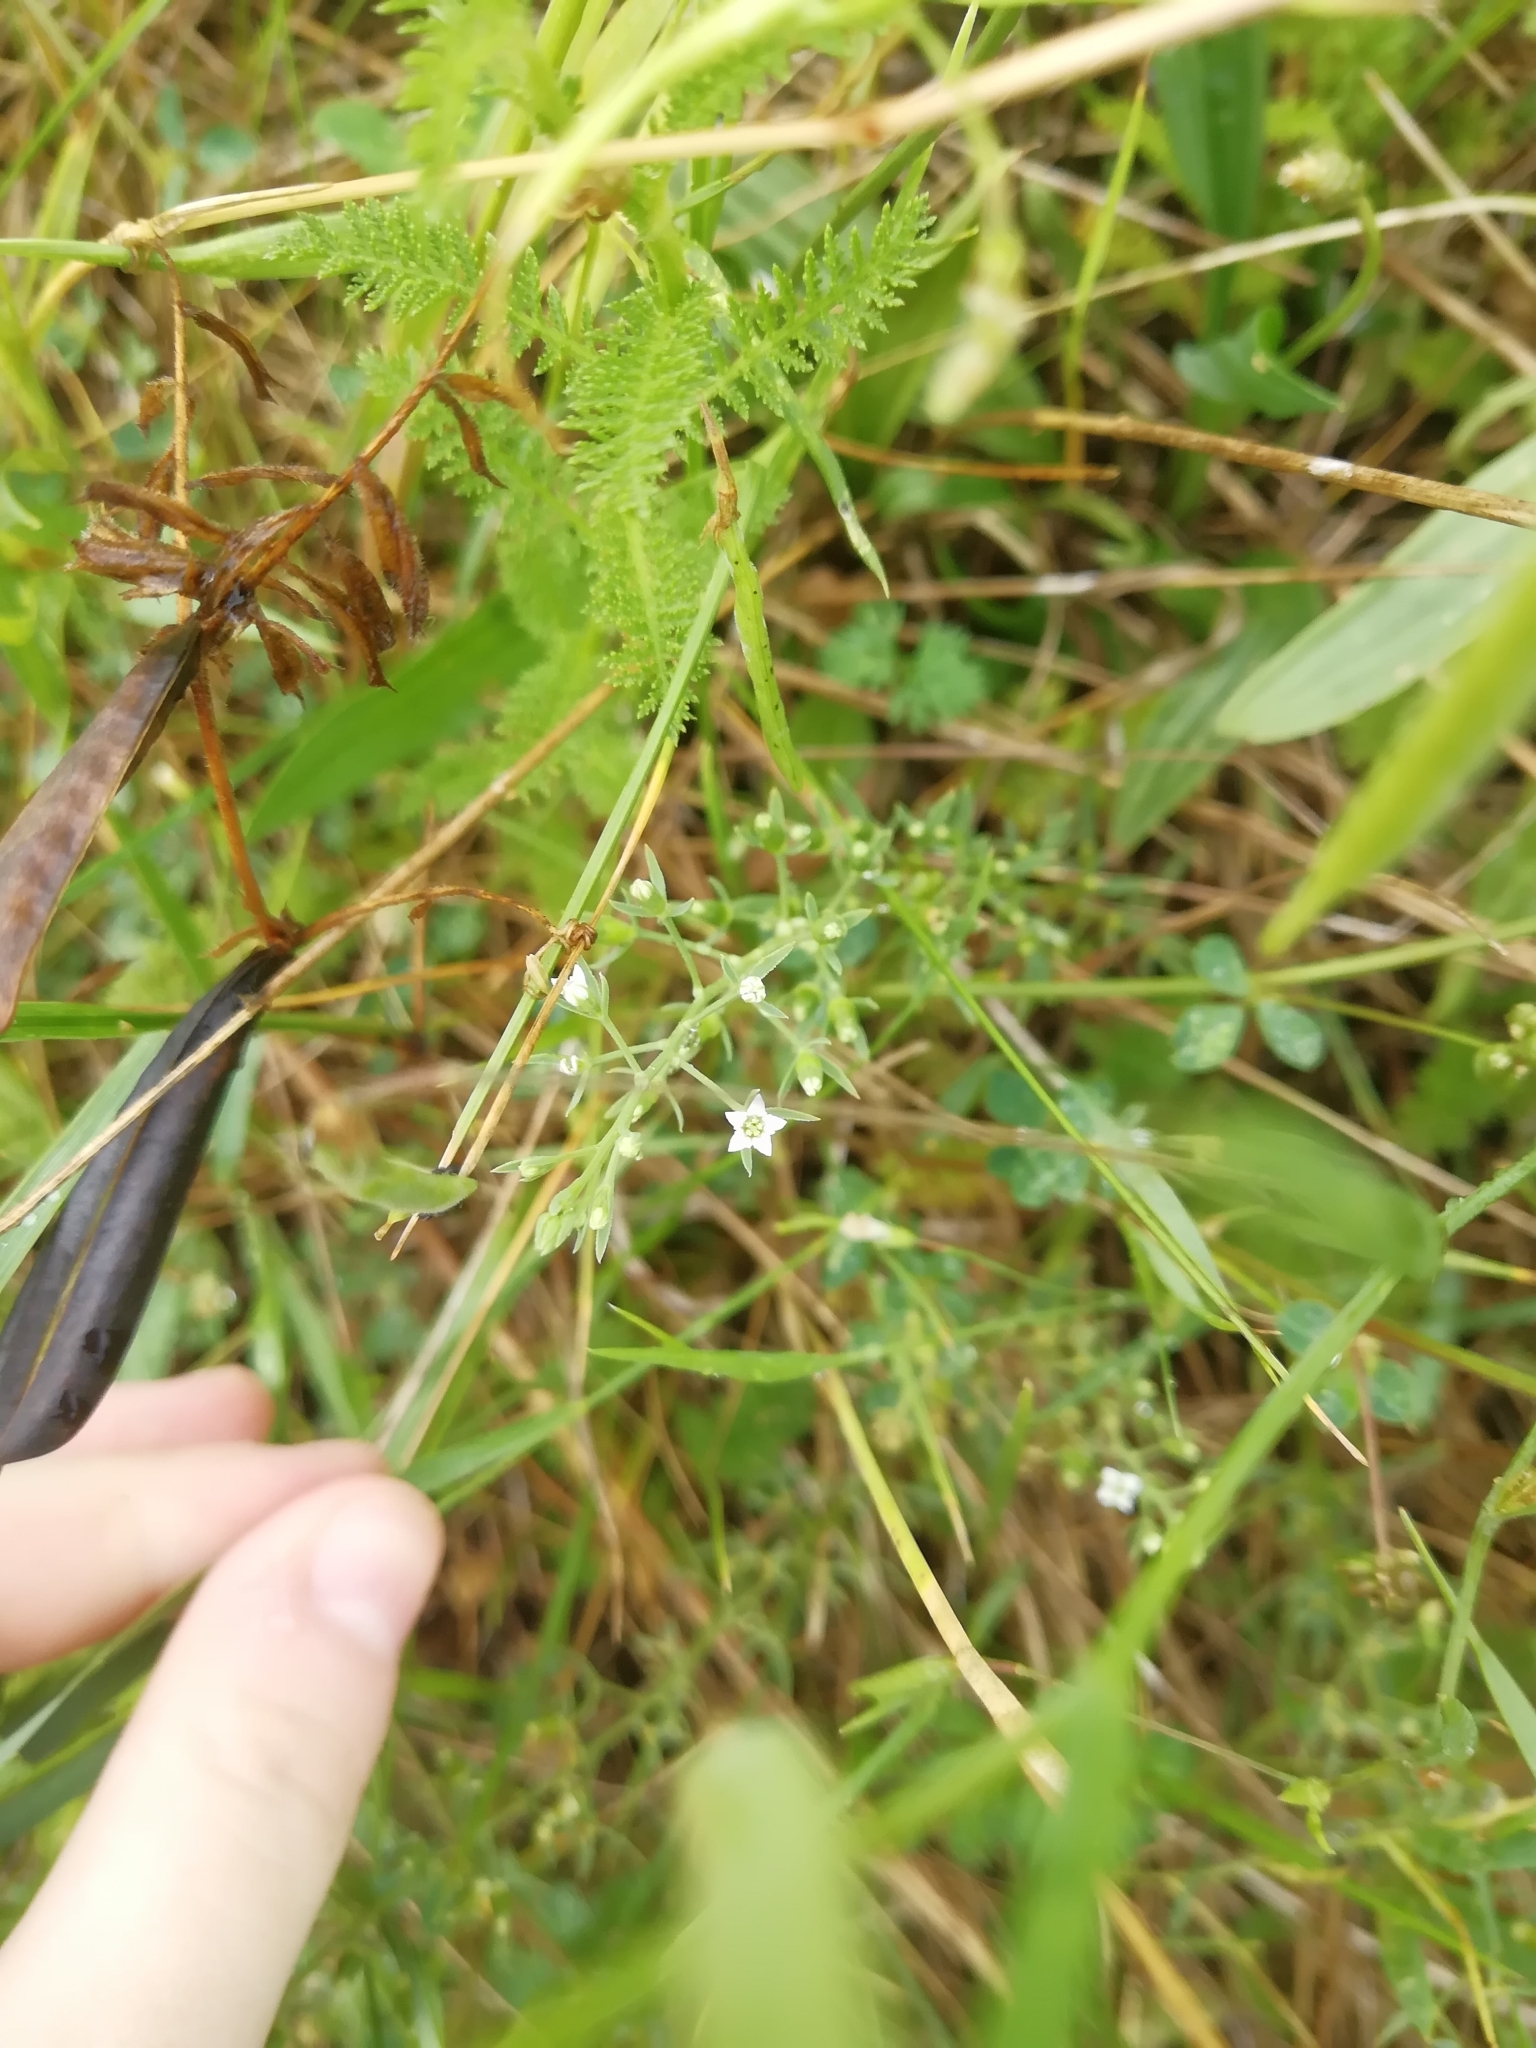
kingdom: Plantae
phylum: Tracheophyta
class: Magnoliopsida
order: Santalales
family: Thesiaceae
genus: Thesium
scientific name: Thesium ramosum
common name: Field thesium
